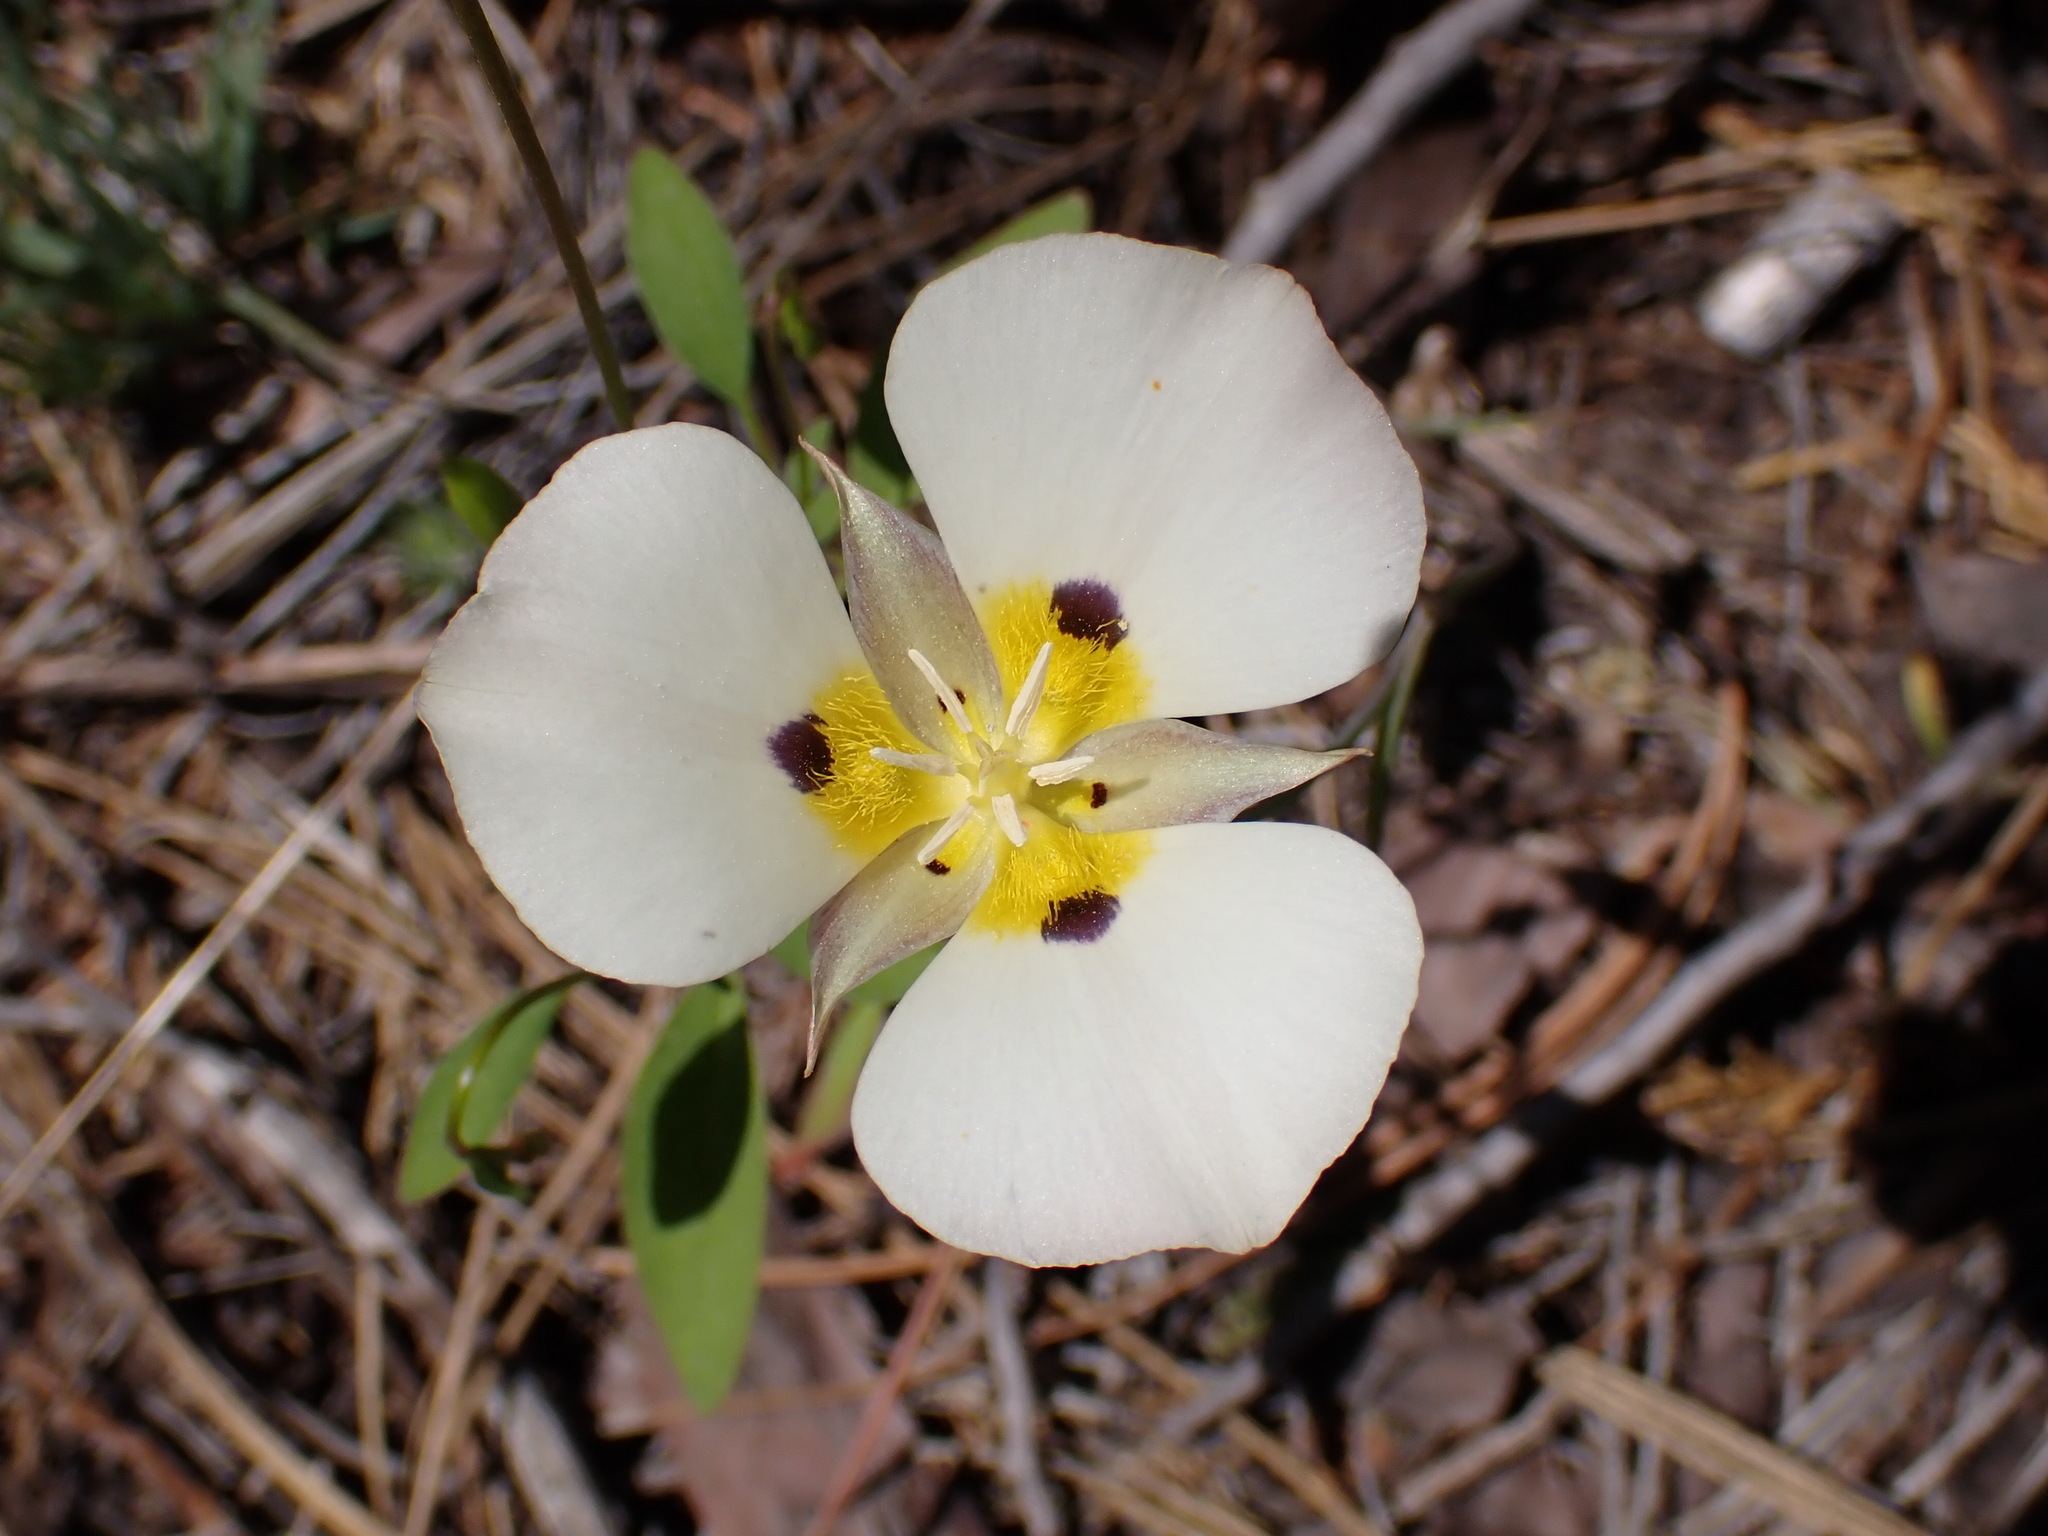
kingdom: Plantae
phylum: Tracheophyta
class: Liliopsida
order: Liliales
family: Liliaceae
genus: Calochortus
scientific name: Calochortus leichtlinii
